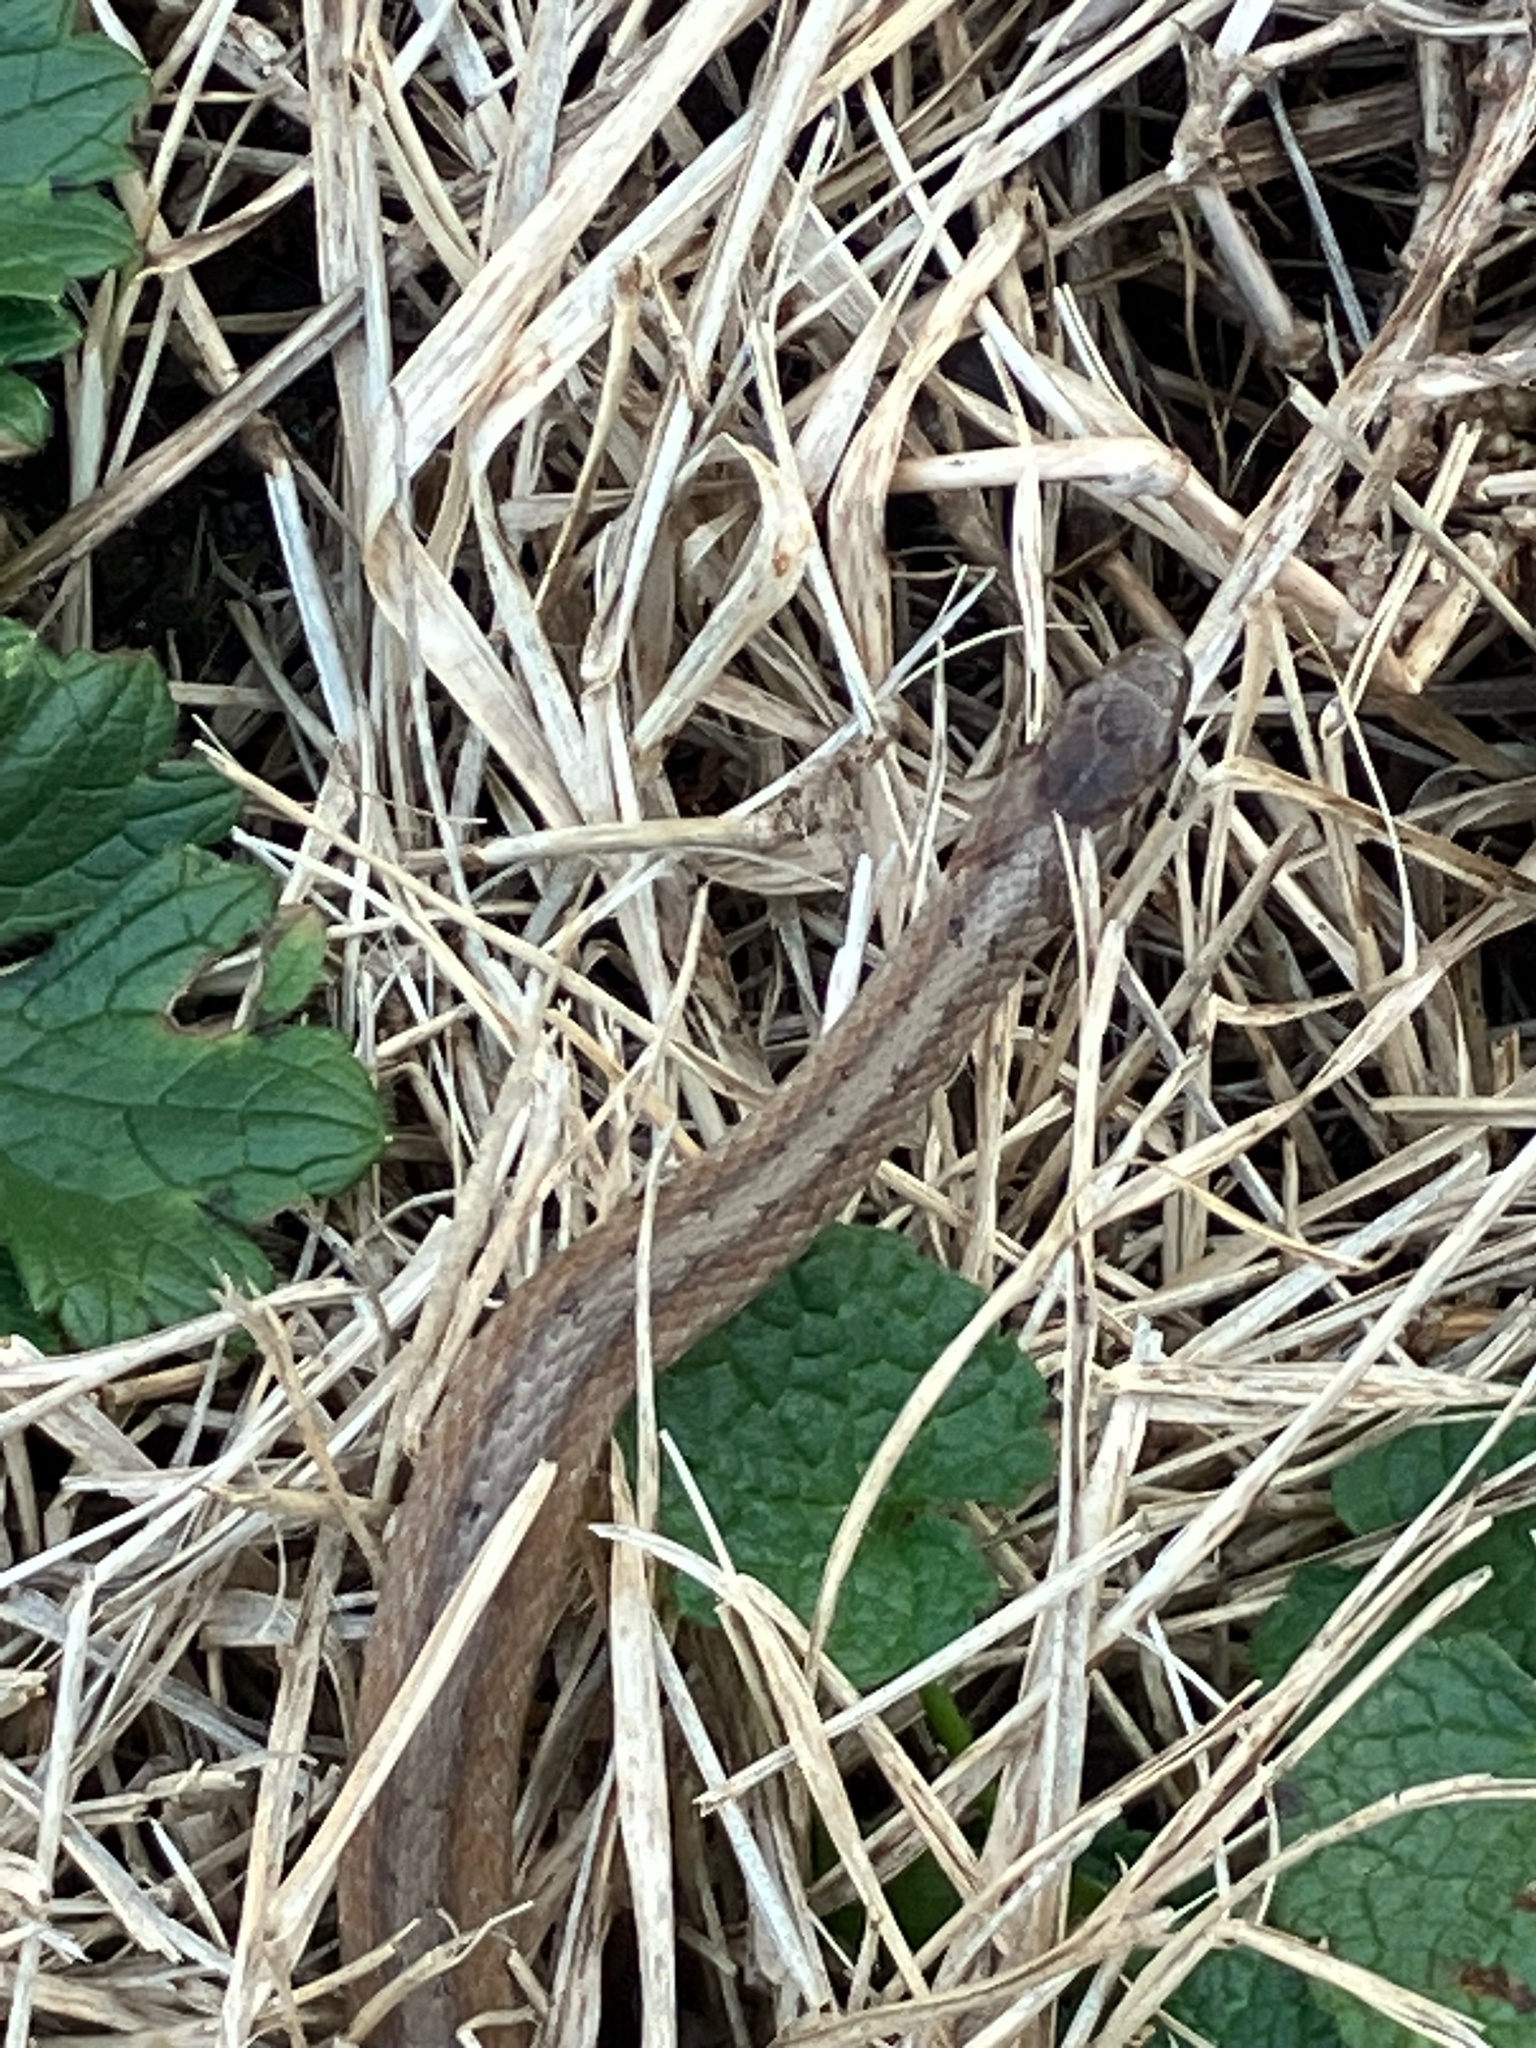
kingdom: Animalia
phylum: Chordata
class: Squamata
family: Colubridae
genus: Storeria
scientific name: Storeria dekayi
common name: (dekay’s) brown snake
